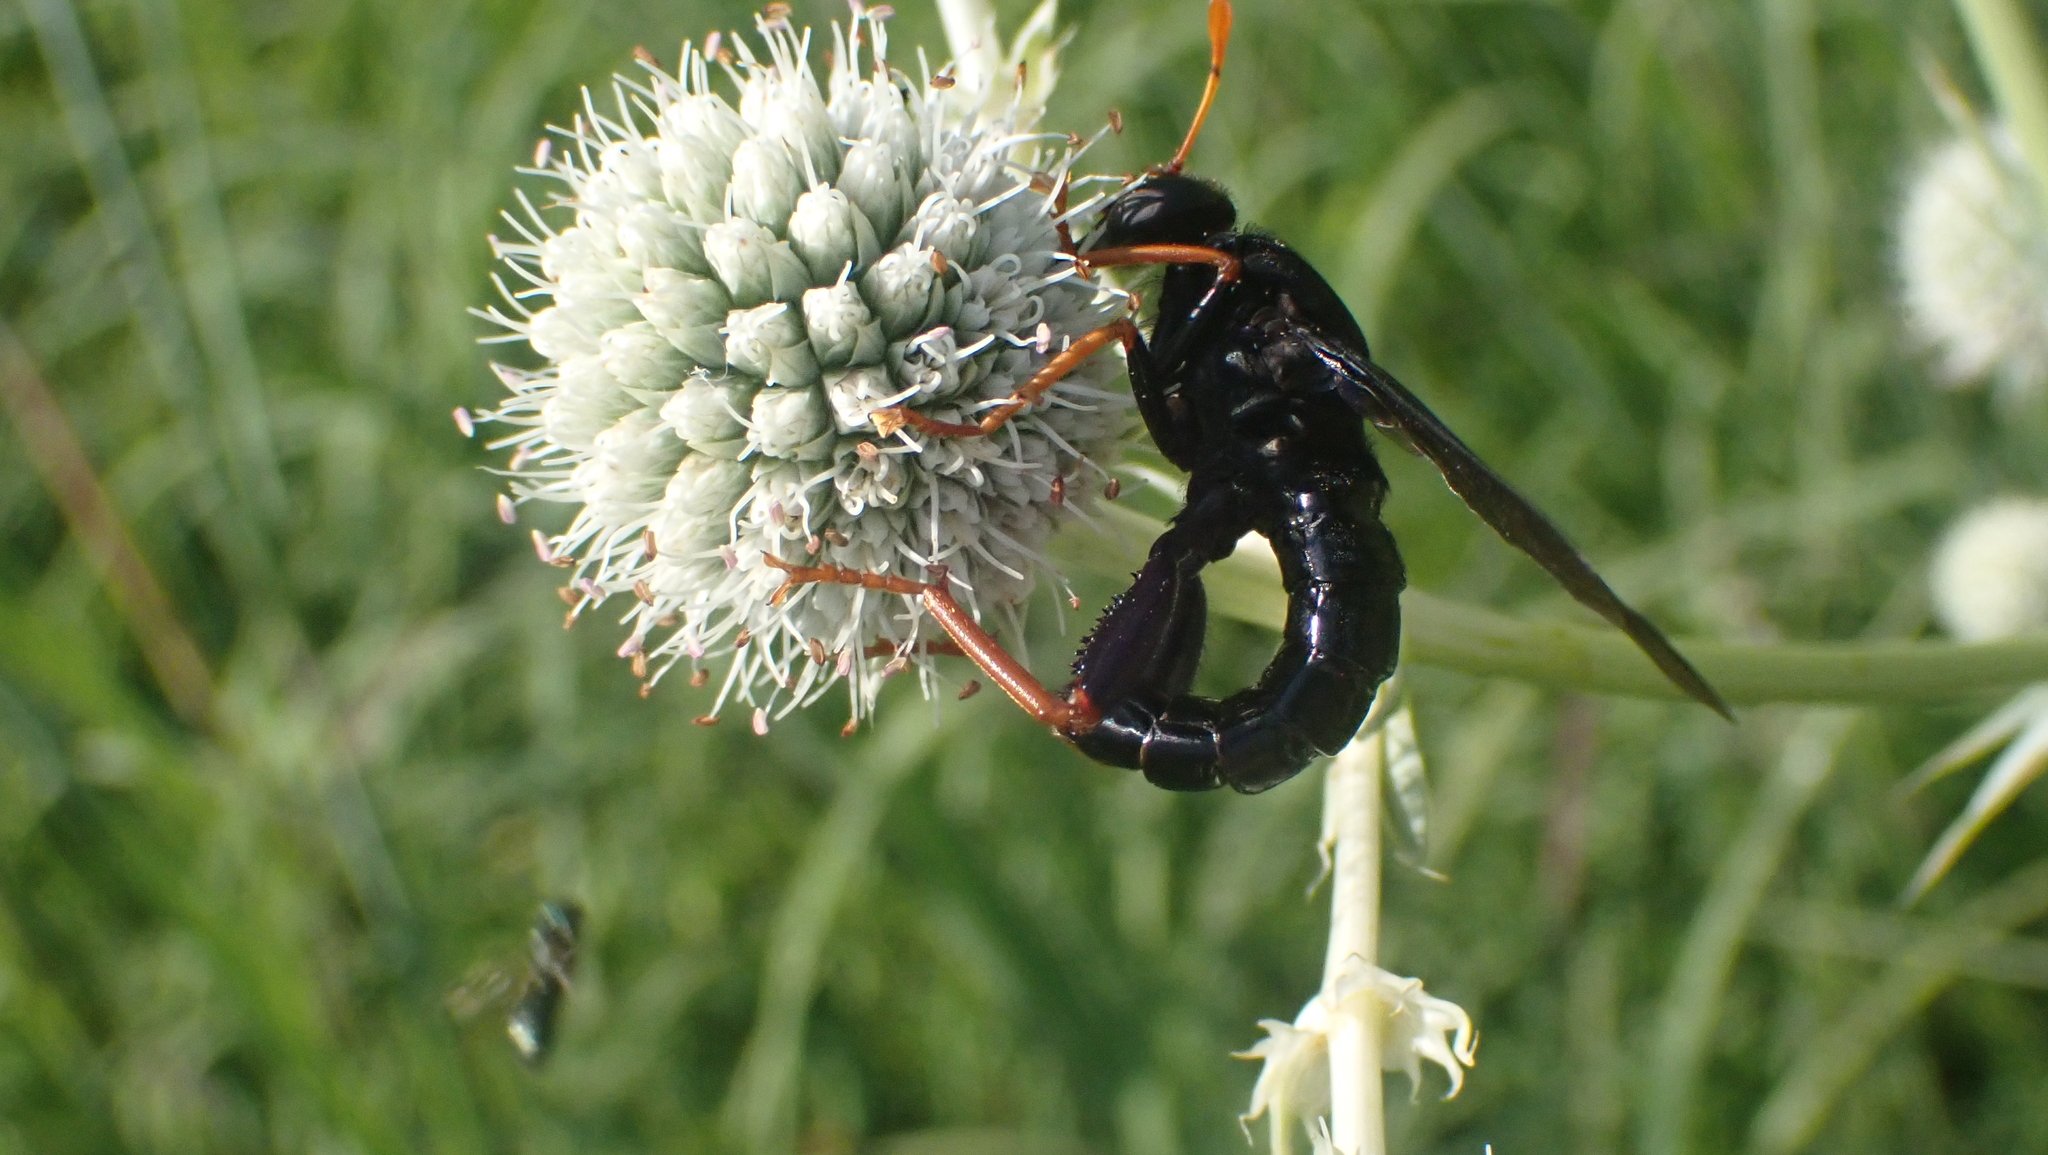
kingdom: Animalia
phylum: Arthropoda
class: Insecta
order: Diptera
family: Mydidae
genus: Mydas
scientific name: Mydas tibialis
